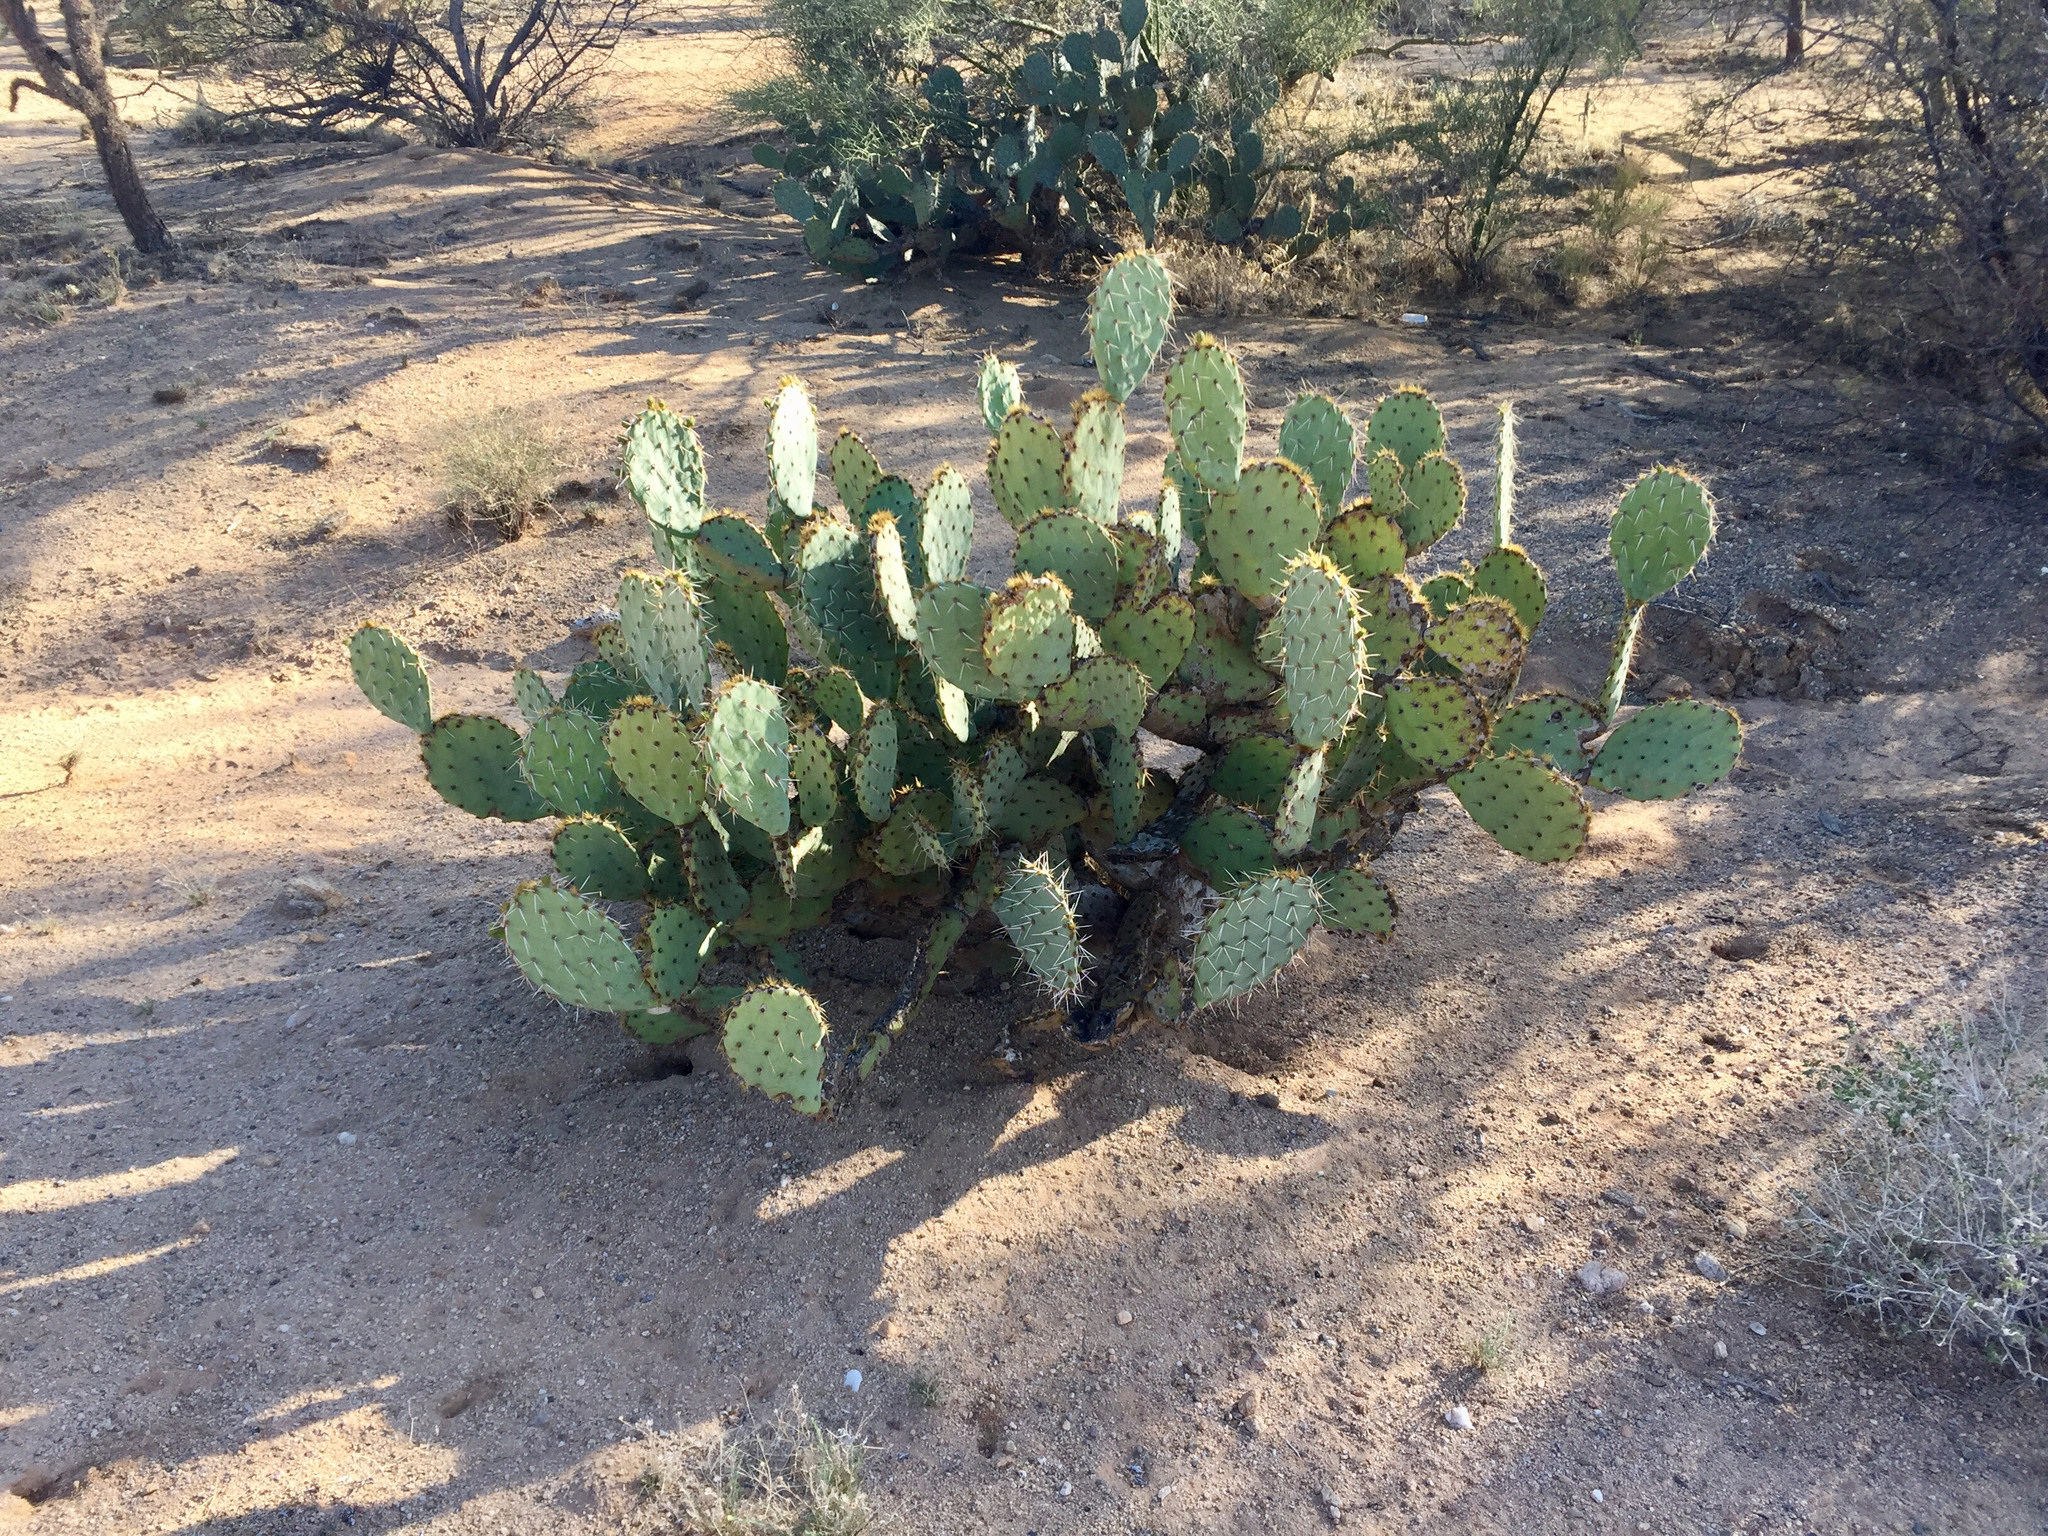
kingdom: Plantae
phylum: Tracheophyta
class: Magnoliopsida
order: Caryophyllales
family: Cactaceae
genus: Opuntia
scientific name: Opuntia engelmannii
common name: Cactus-apple
